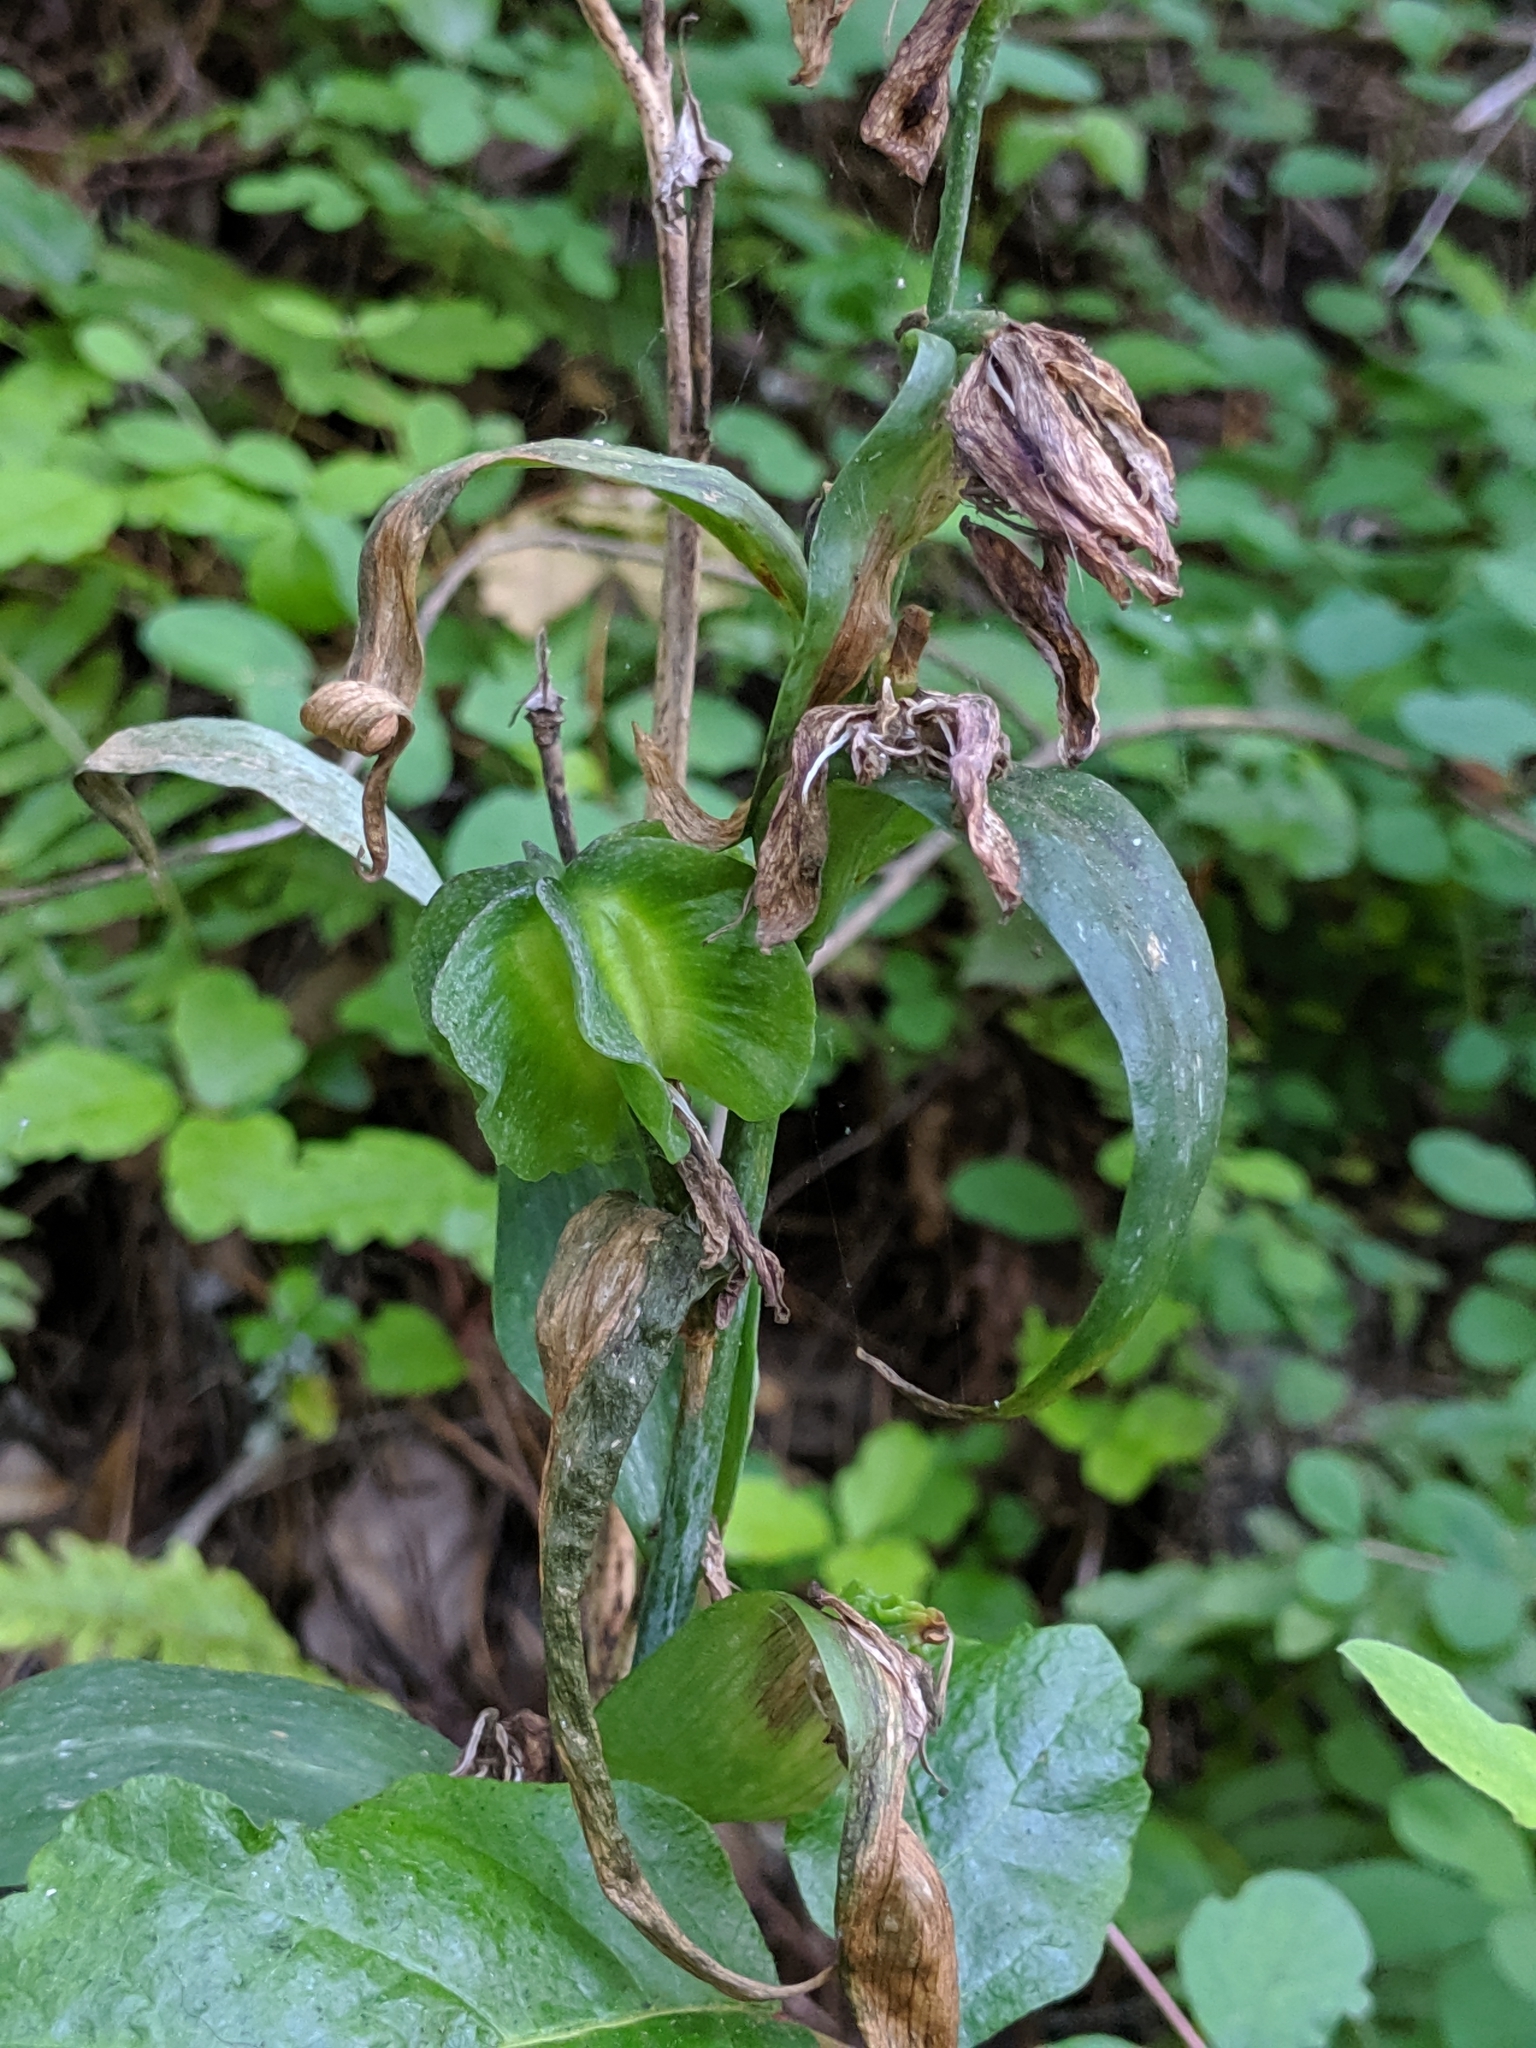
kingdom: Plantae
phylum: Tracheophyta
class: Liliopsida
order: Liliales
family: Liliaceae
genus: Fritillaria
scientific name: Fritillaria affinis
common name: Ojai fritillary
